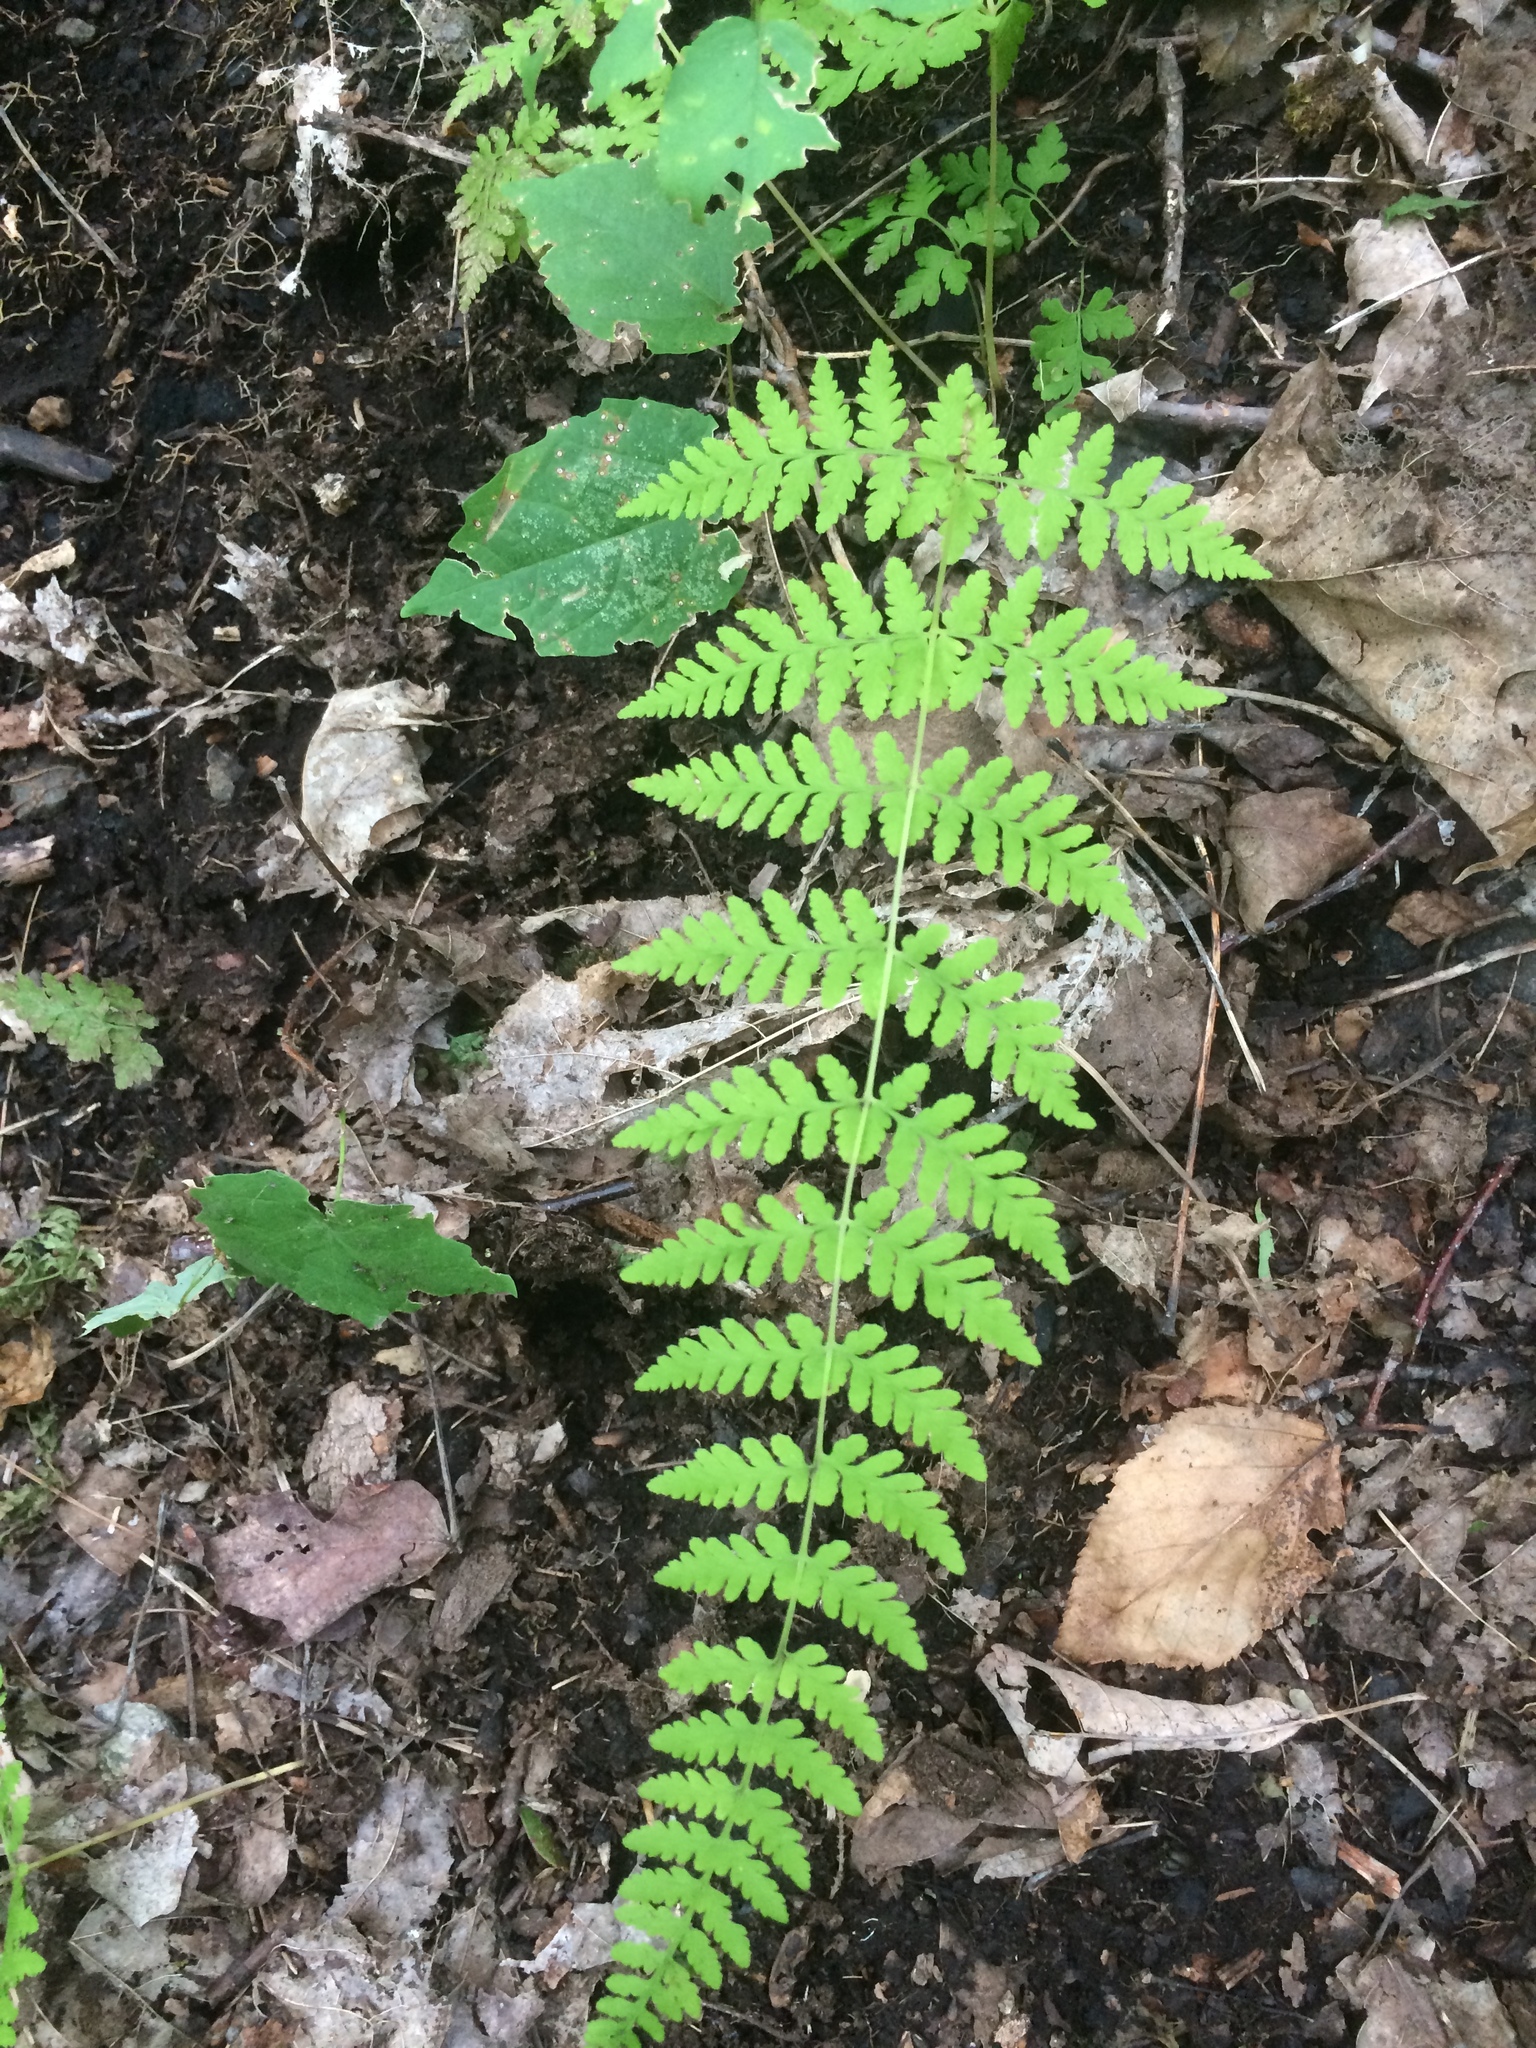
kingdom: Plantae
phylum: Tracheophyta
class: Polypodiopsida
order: Polypodiales
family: Cystopteridaceae
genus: Cystopteris
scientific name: Cystopteris bulbifera
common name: Bulblet bladder fern
